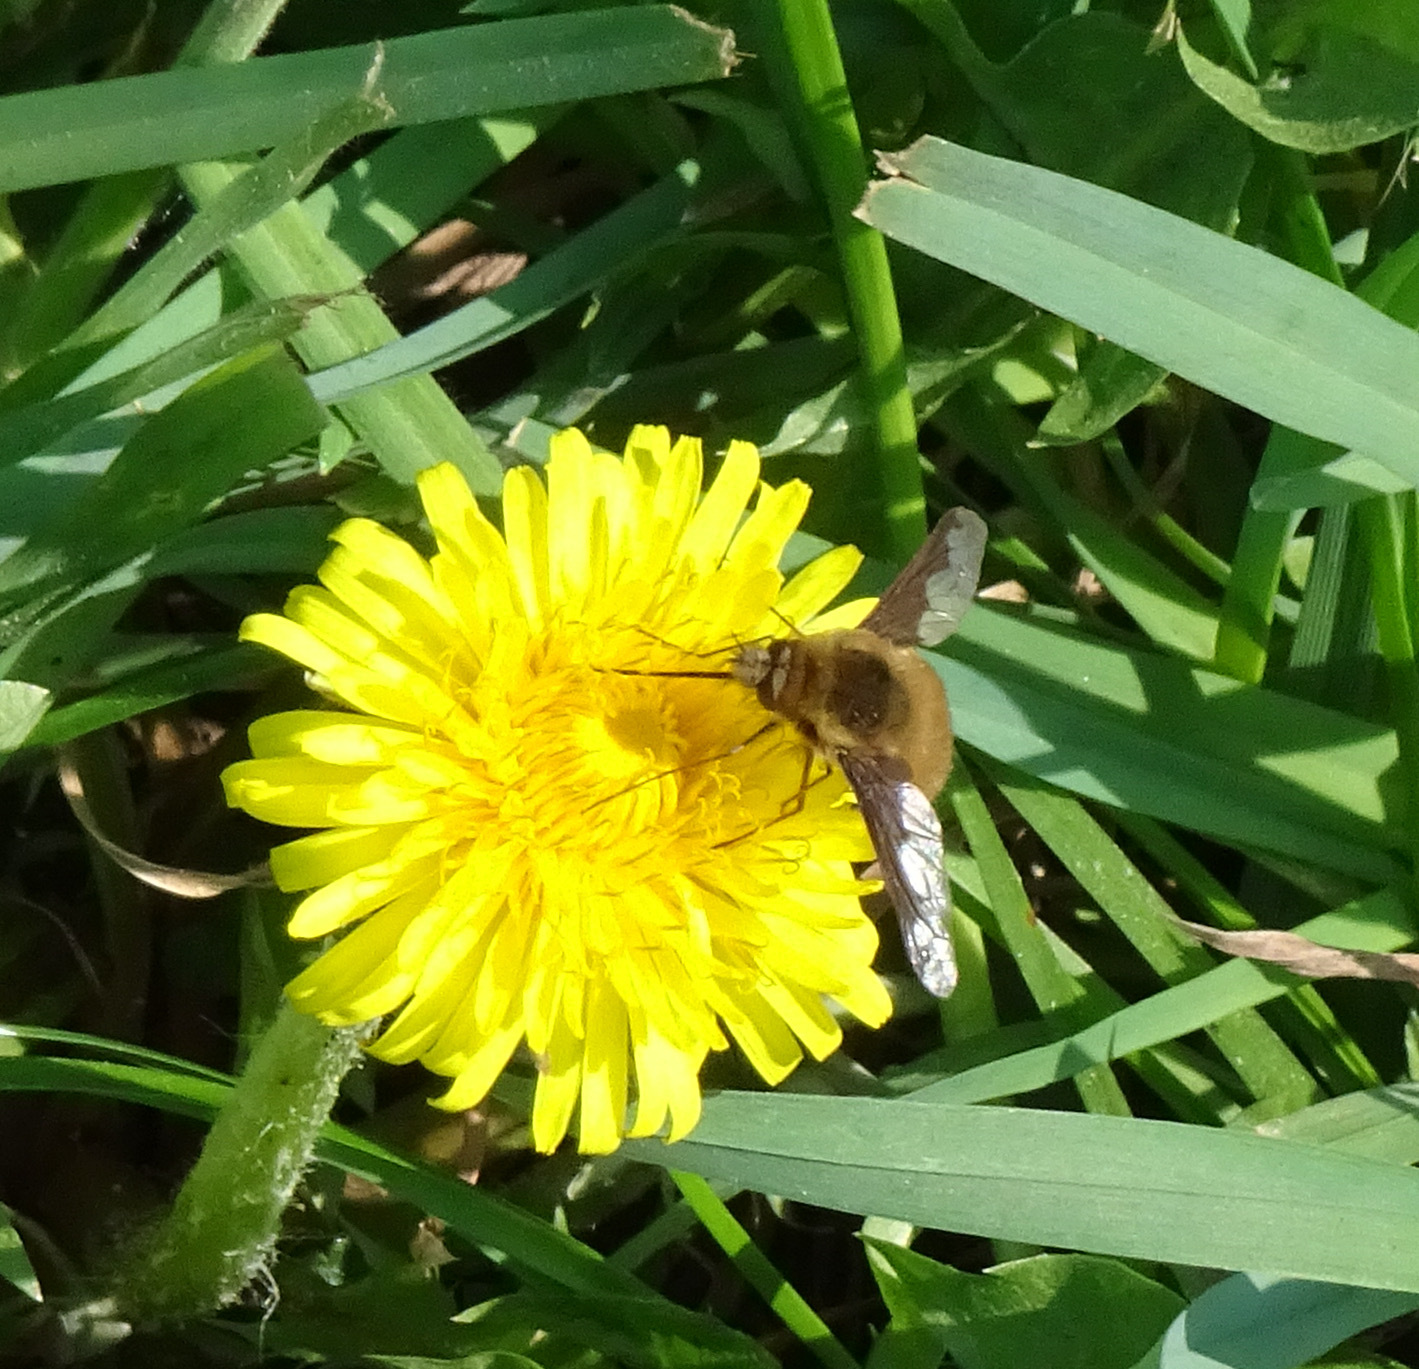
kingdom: Animalia
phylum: Arthropoda
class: Insecta
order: Diptera
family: Bombyliidae
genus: Bombylius
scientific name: Bombylius major
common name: Bee fly
